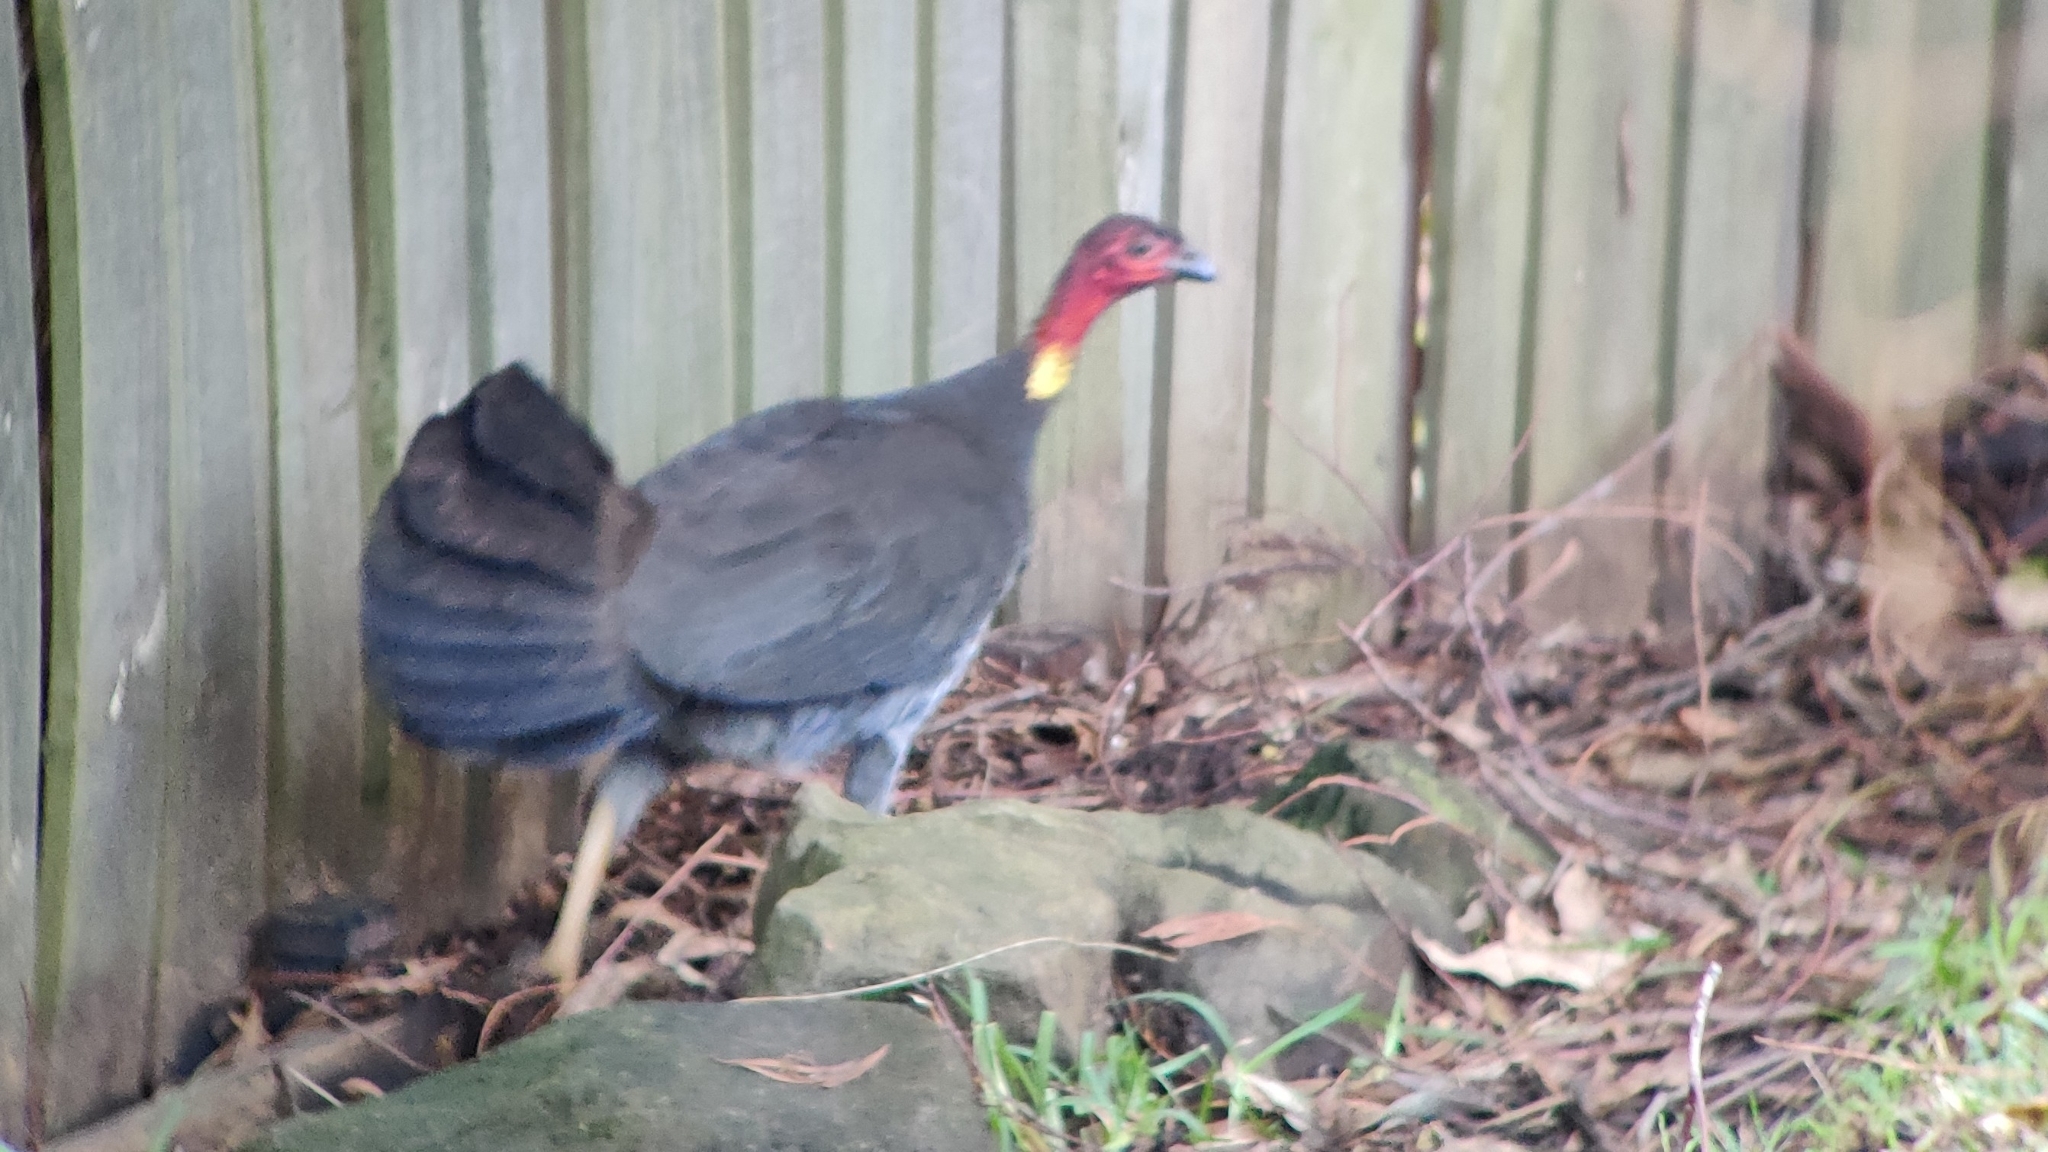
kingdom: Animalia
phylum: Chordata
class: Aves
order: Galliformes
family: Megapodiidae
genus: Alectura
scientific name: Alectura lathami
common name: Australian brushturkey
